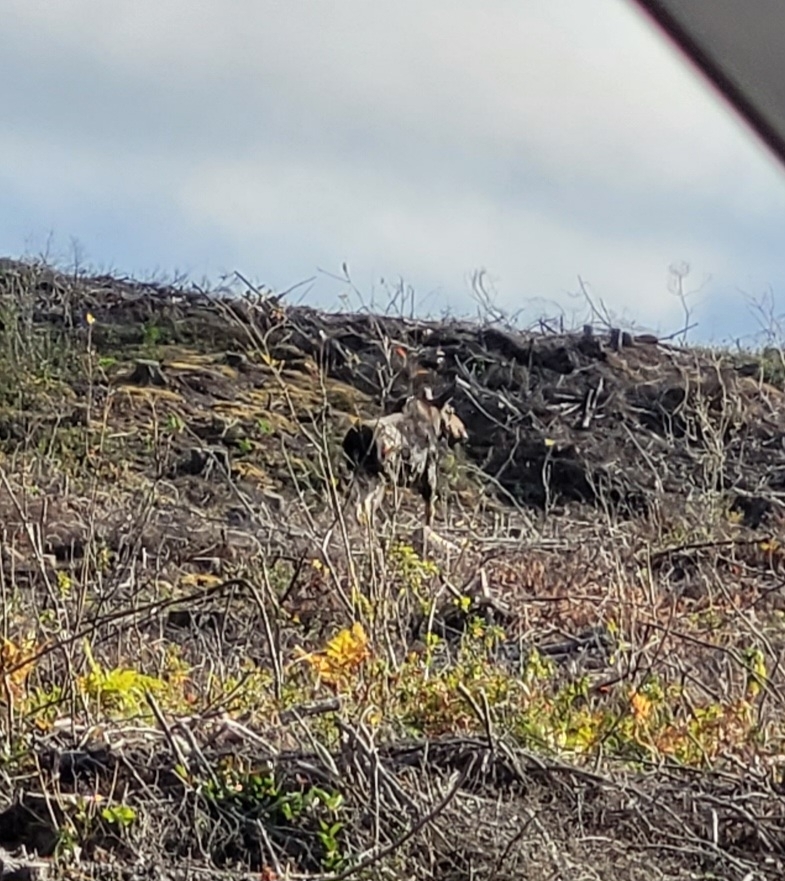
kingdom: Animalia
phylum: Chordata
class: Mammalia
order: Artiodactyla
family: Cervidae
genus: Alces
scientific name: Alces alces
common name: Moose
